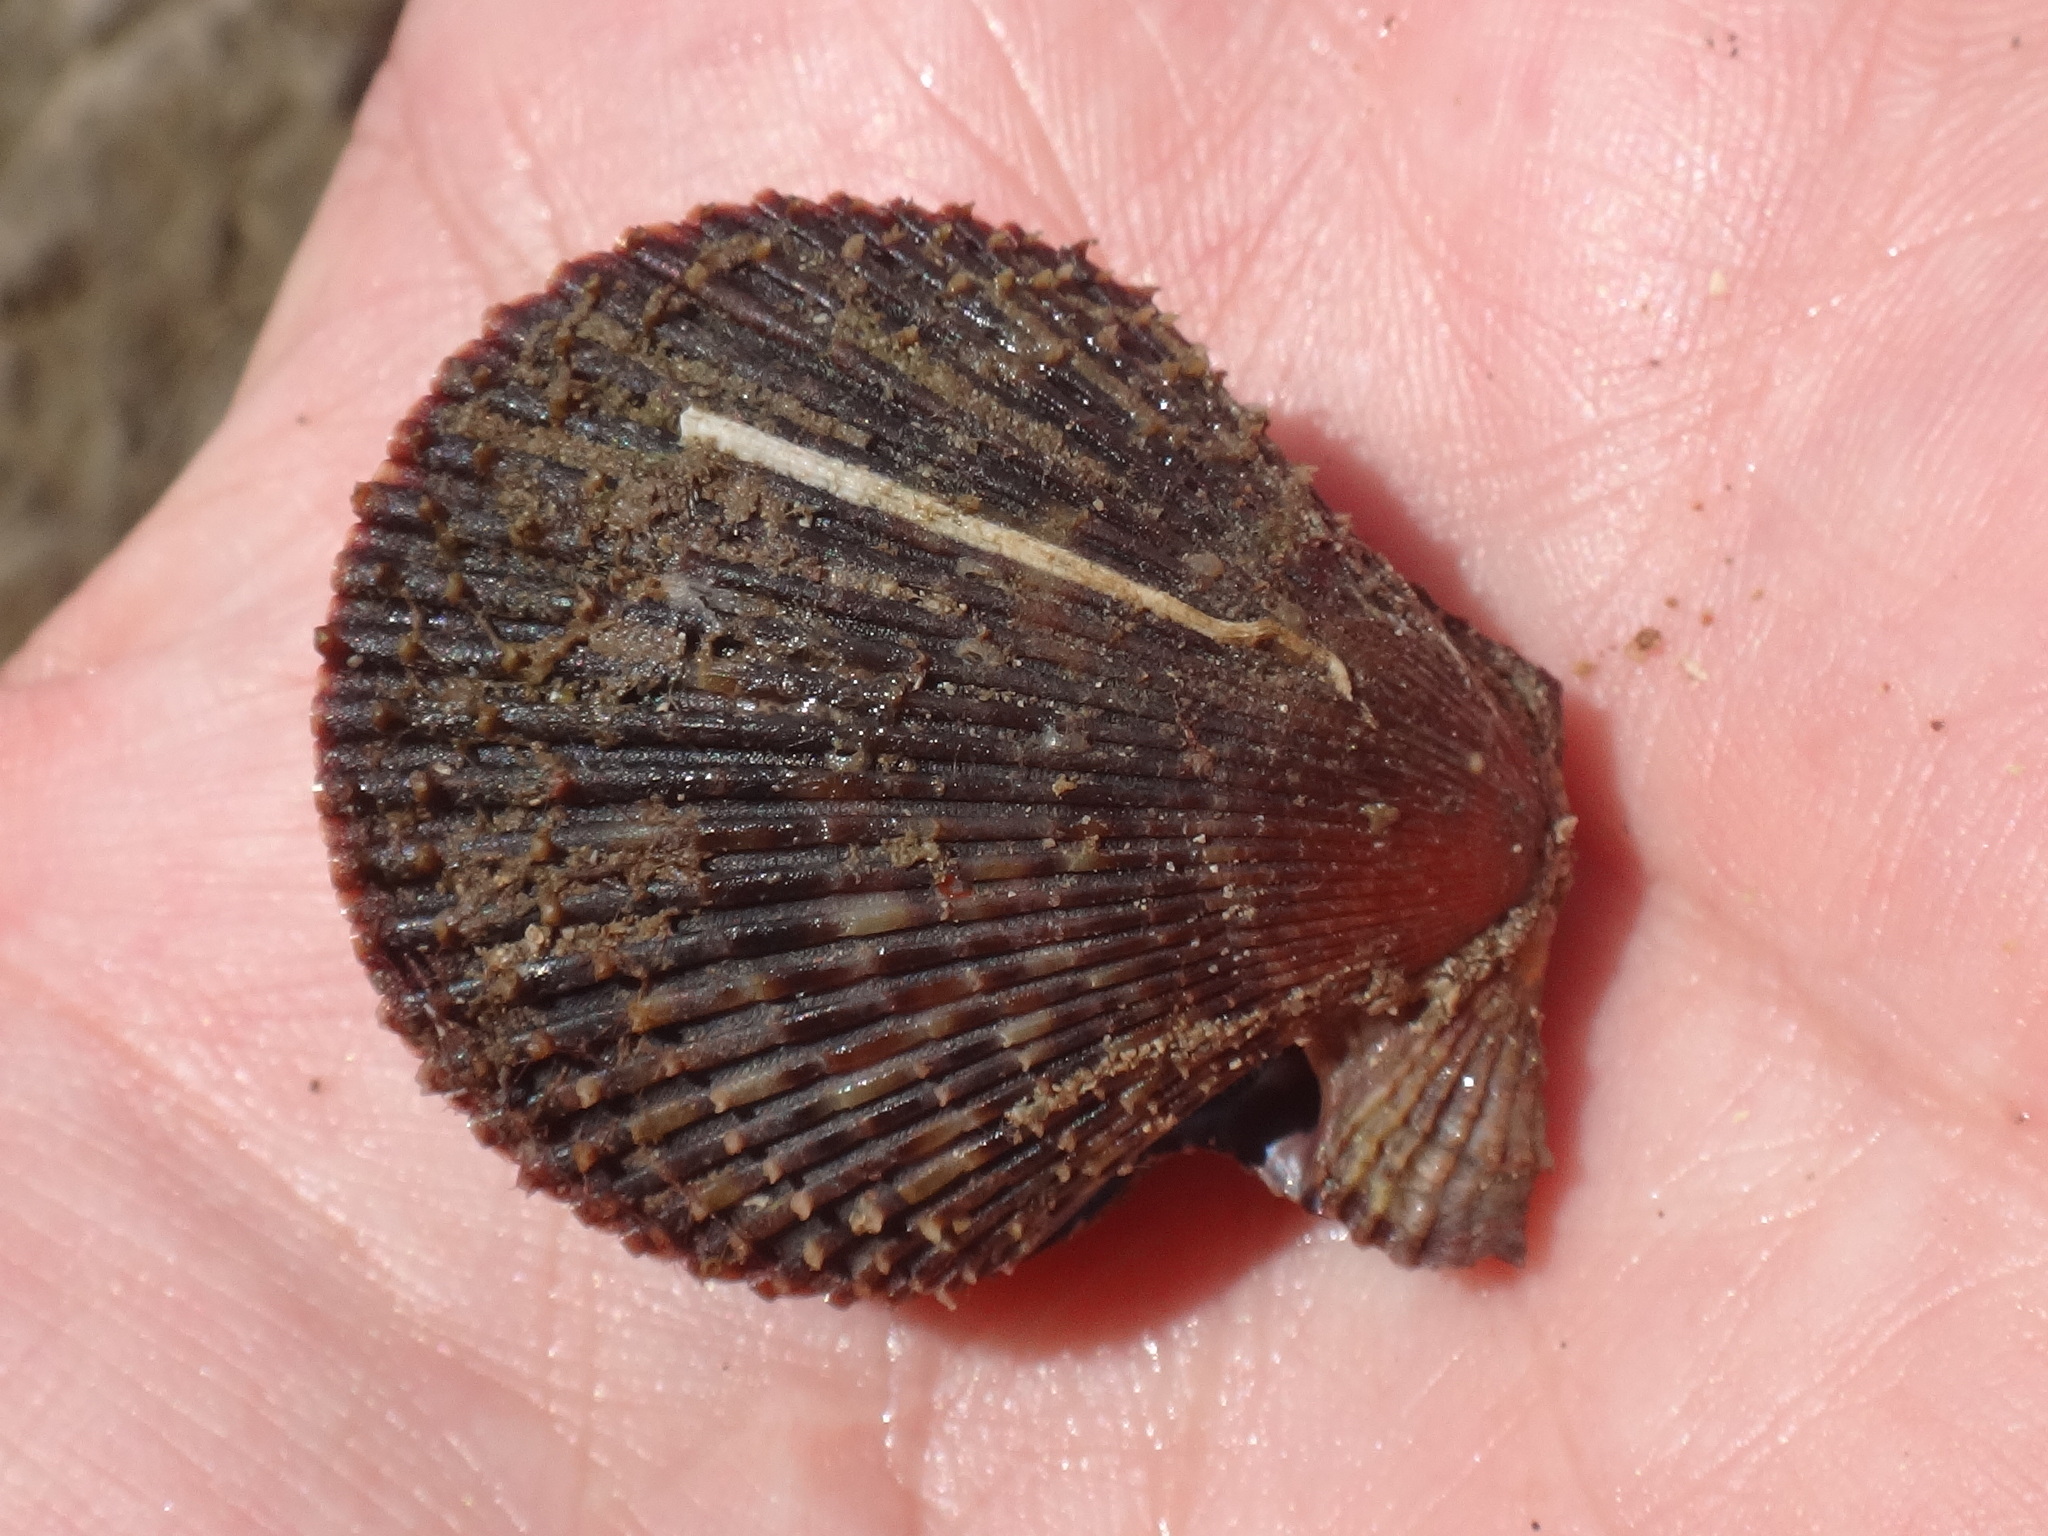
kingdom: Animalia
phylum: Mollusca
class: Bivalvia
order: Pectinida
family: Pectinidae
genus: Mimachlamys
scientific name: Mimachlamys varia
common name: Variegated scallop
